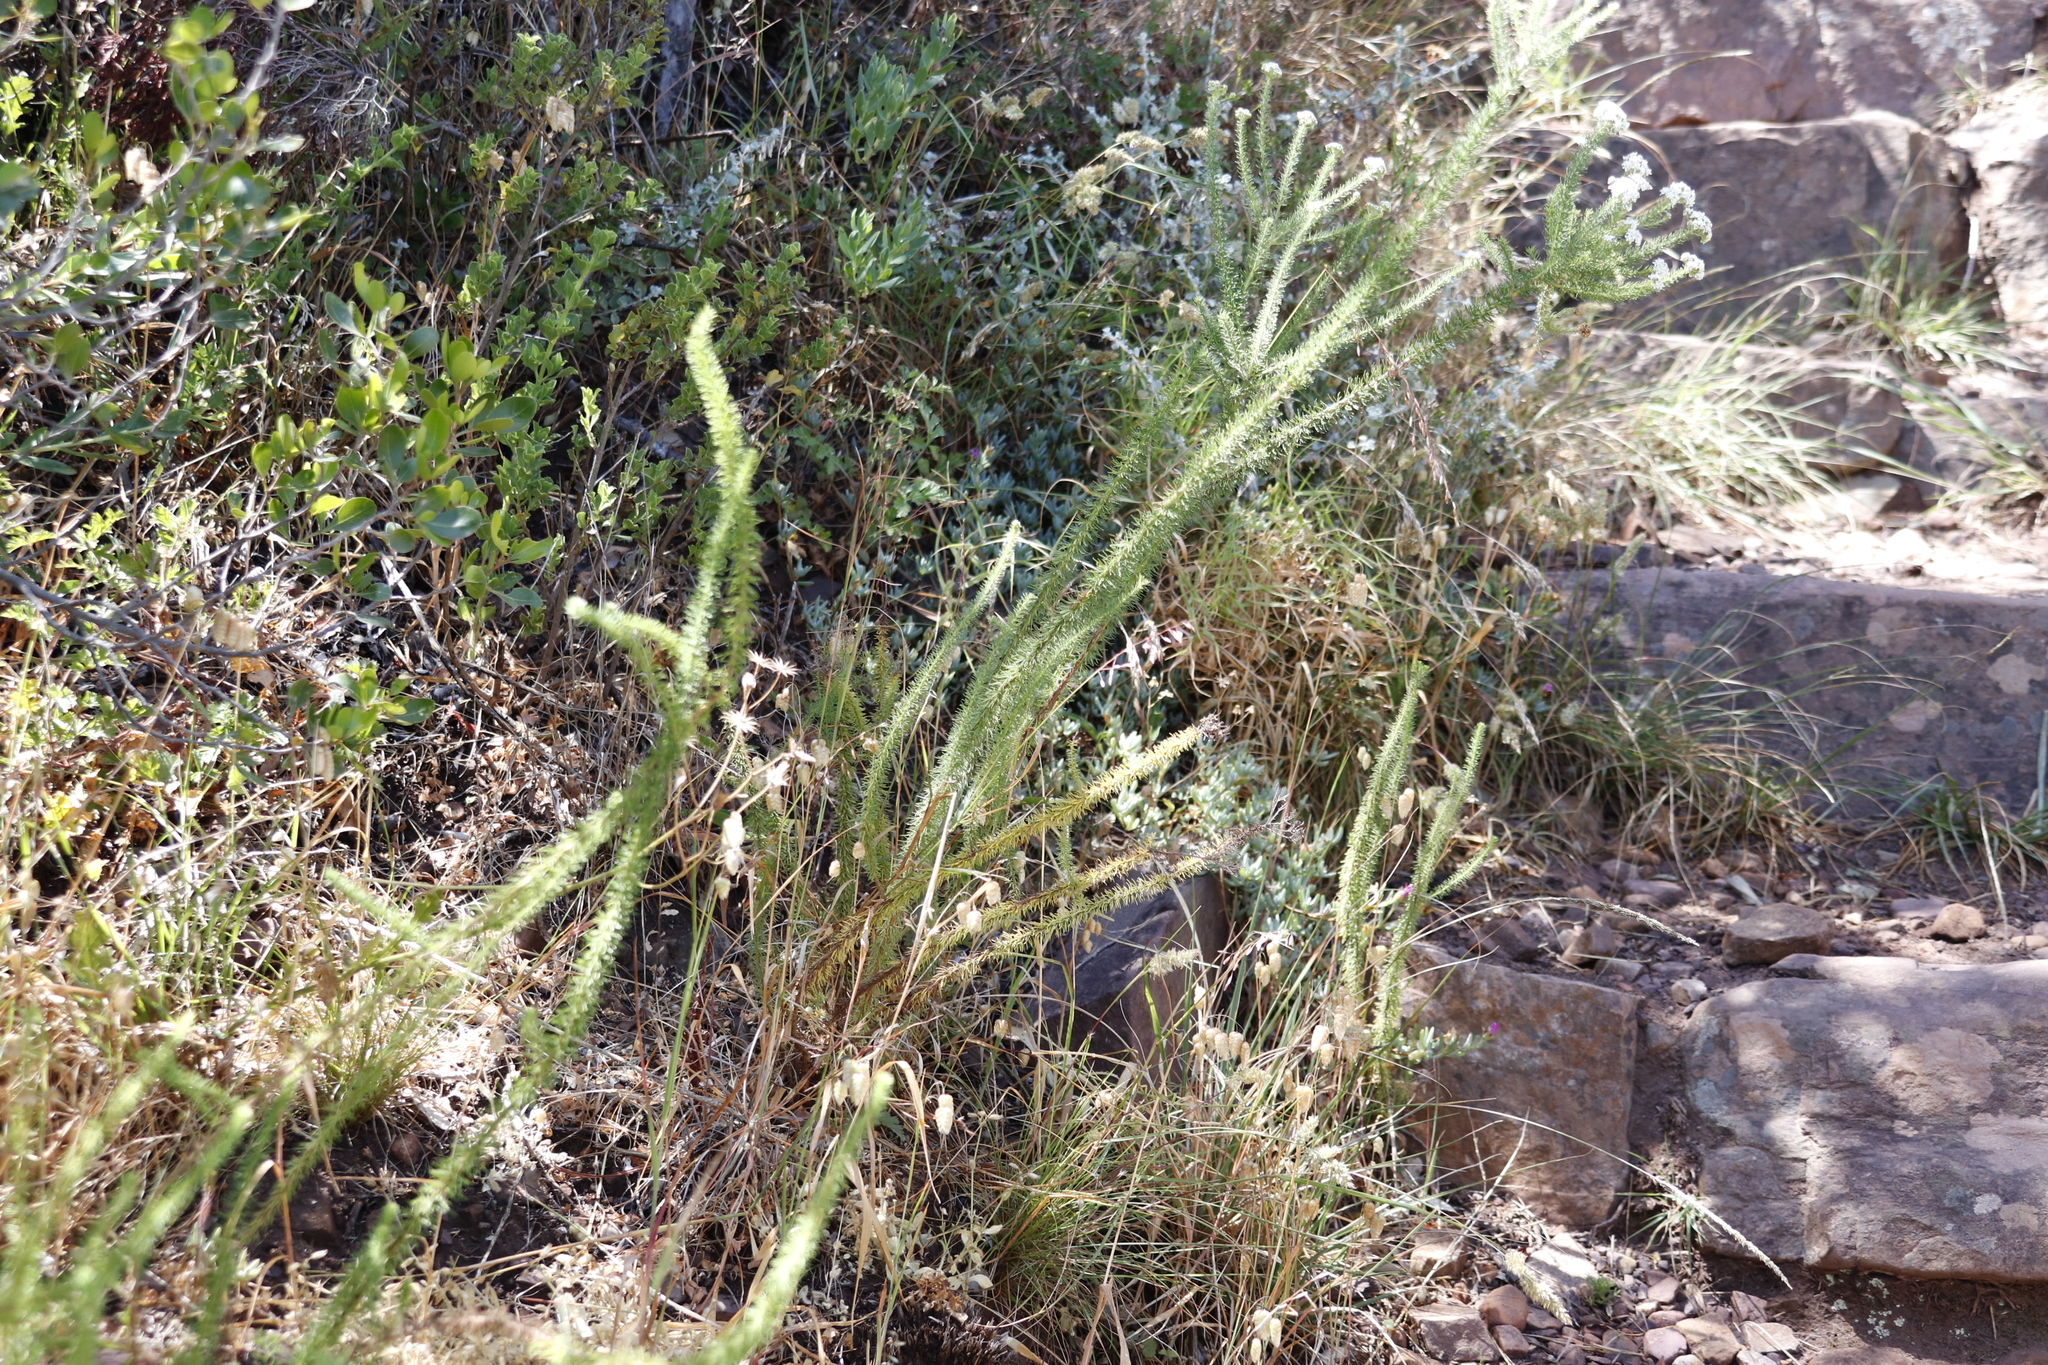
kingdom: Plantae
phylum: Tracheophyta
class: Magnoliopsida
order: Lamiales
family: Scrophulariaceae
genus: Selago
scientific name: Selago corymbosa
